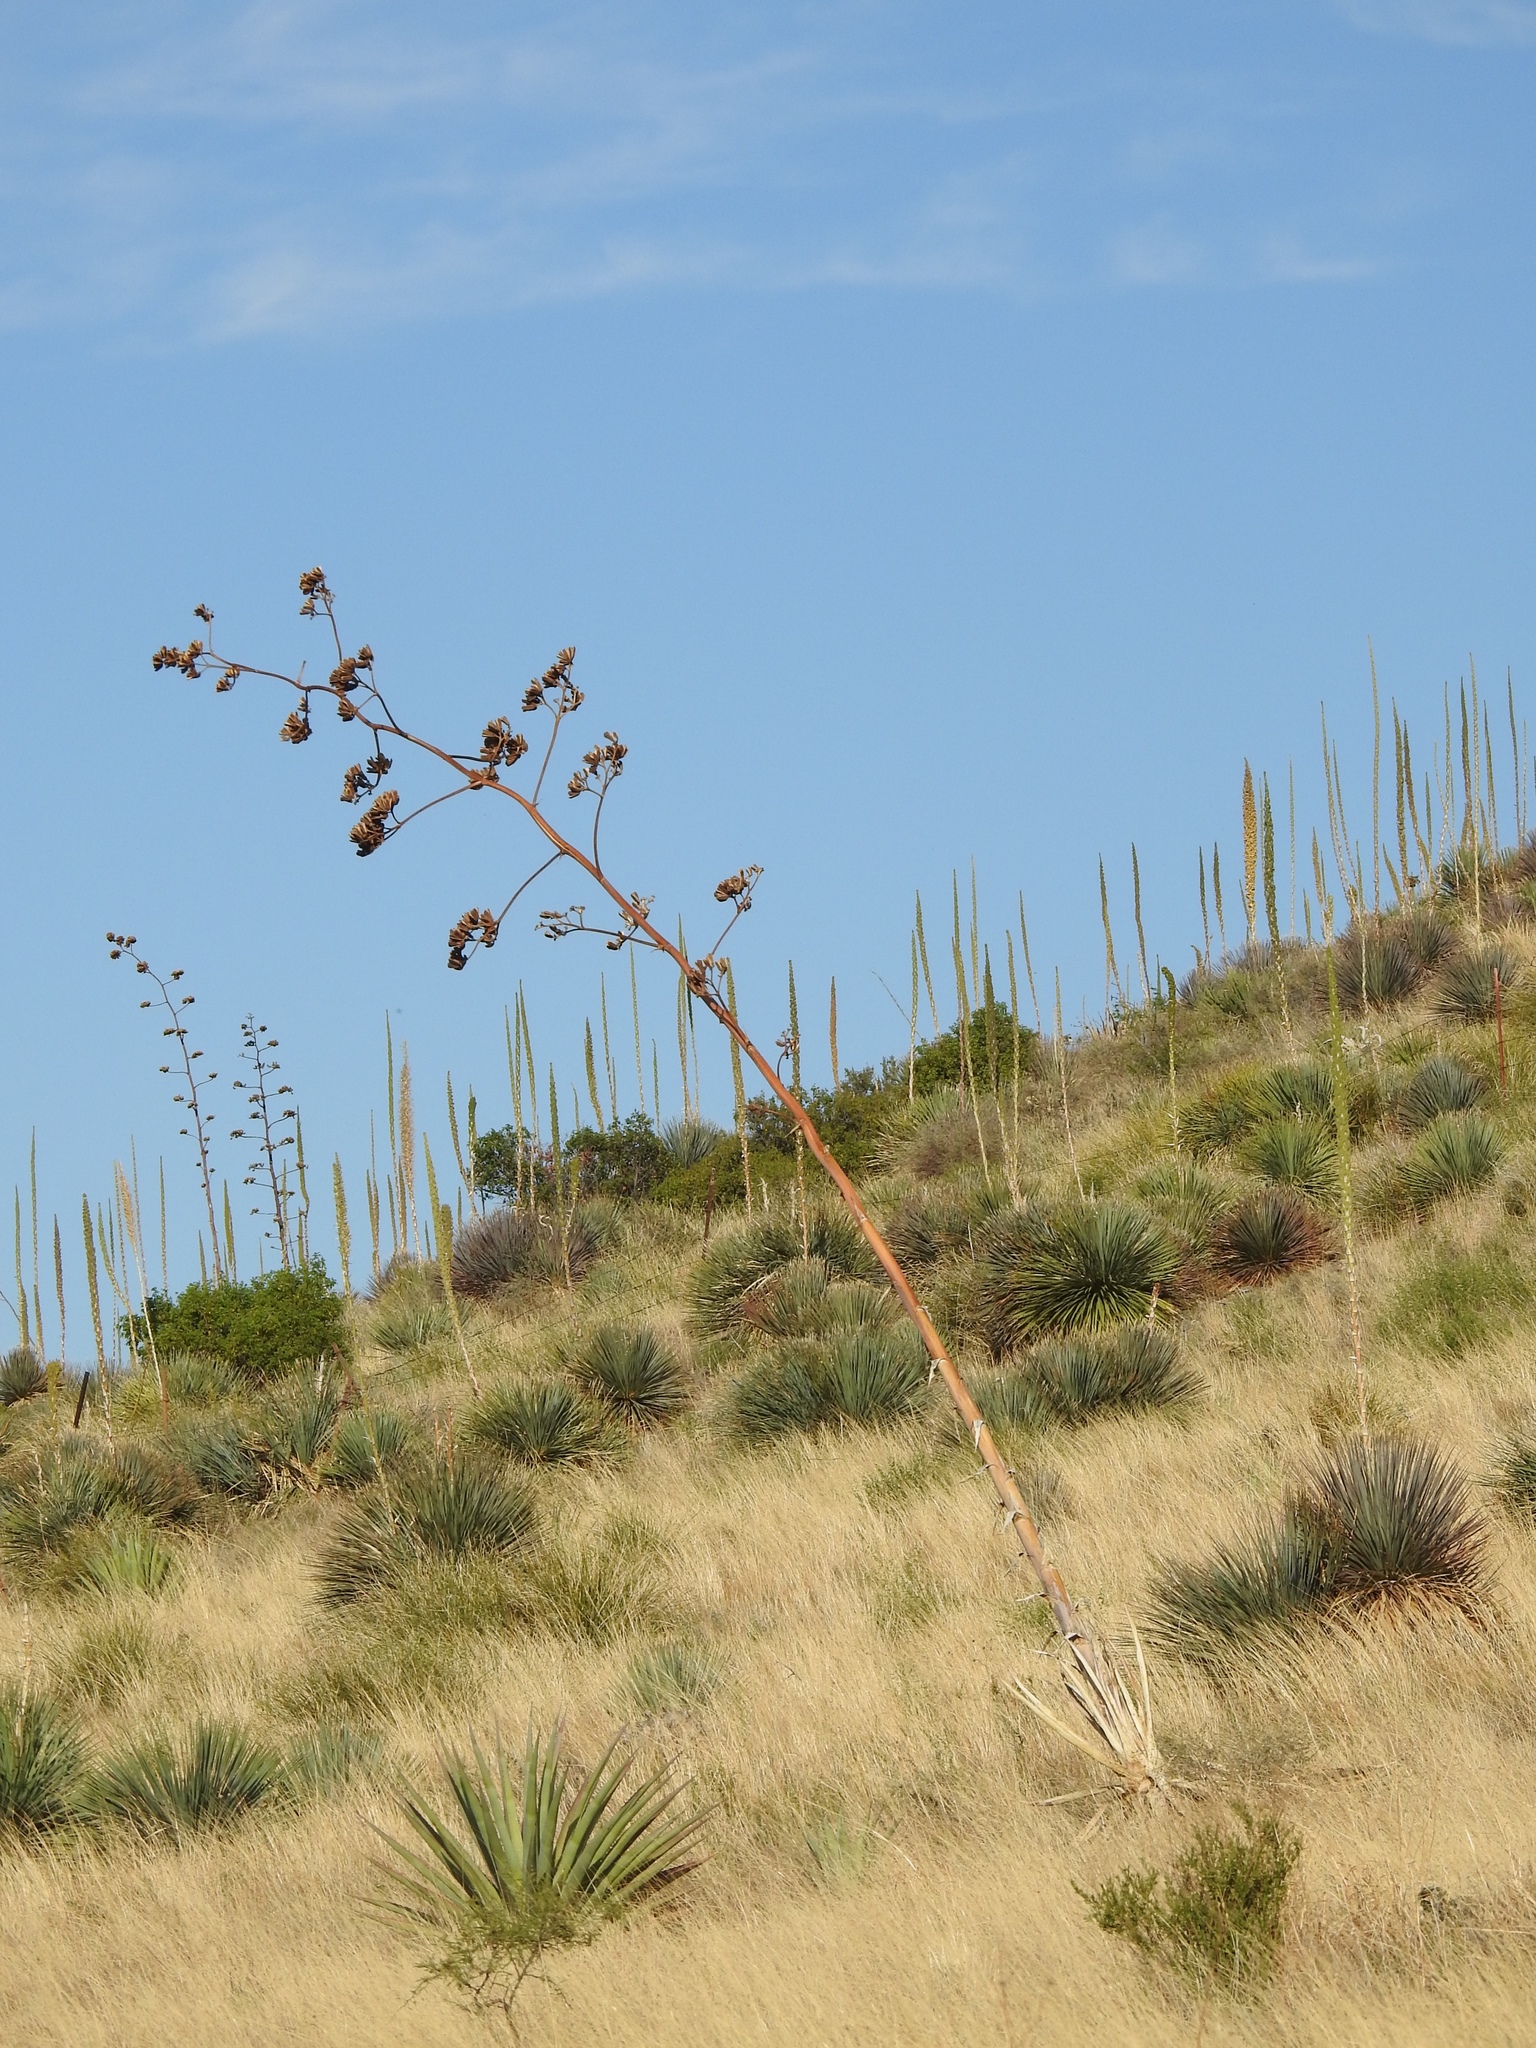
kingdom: Plantae
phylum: Tracheophyta
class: Liliopsida
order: Asparagales
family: Asparagaceae
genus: Agave
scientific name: Agave palmeri
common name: Palmer agave
